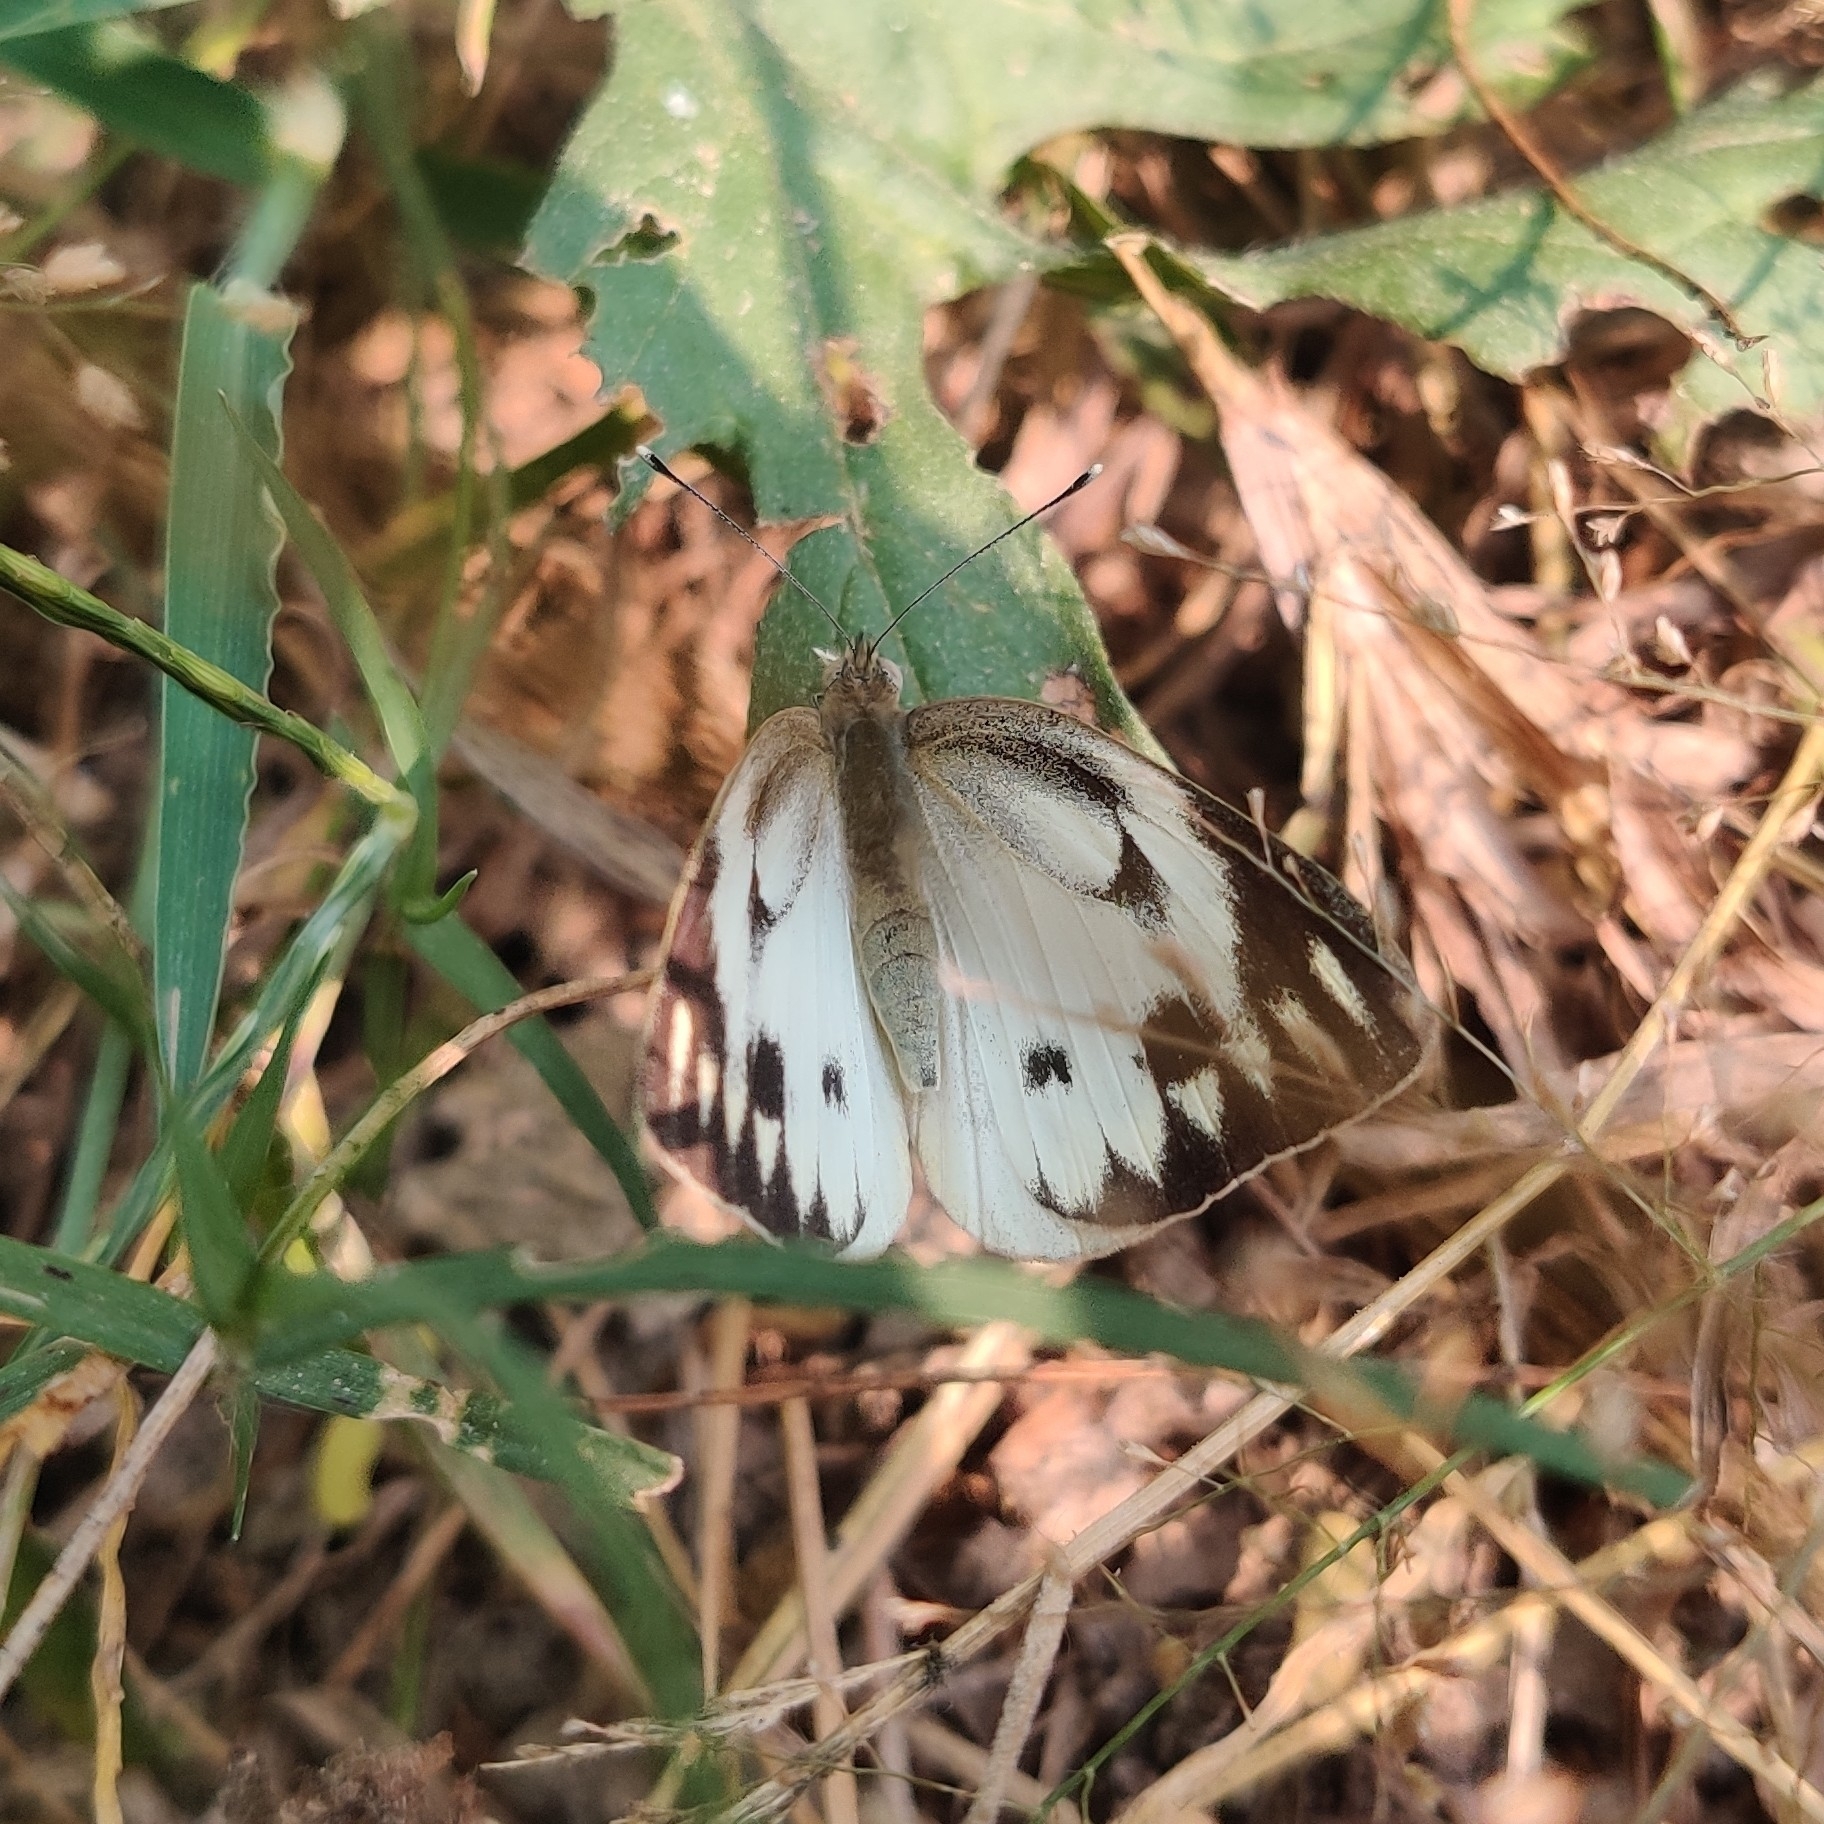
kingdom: Animalia
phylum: Arthropoda
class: Insecta
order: Lepidoptera
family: Pieridae
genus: Cepora
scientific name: Cepora nerissa
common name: Common gull
